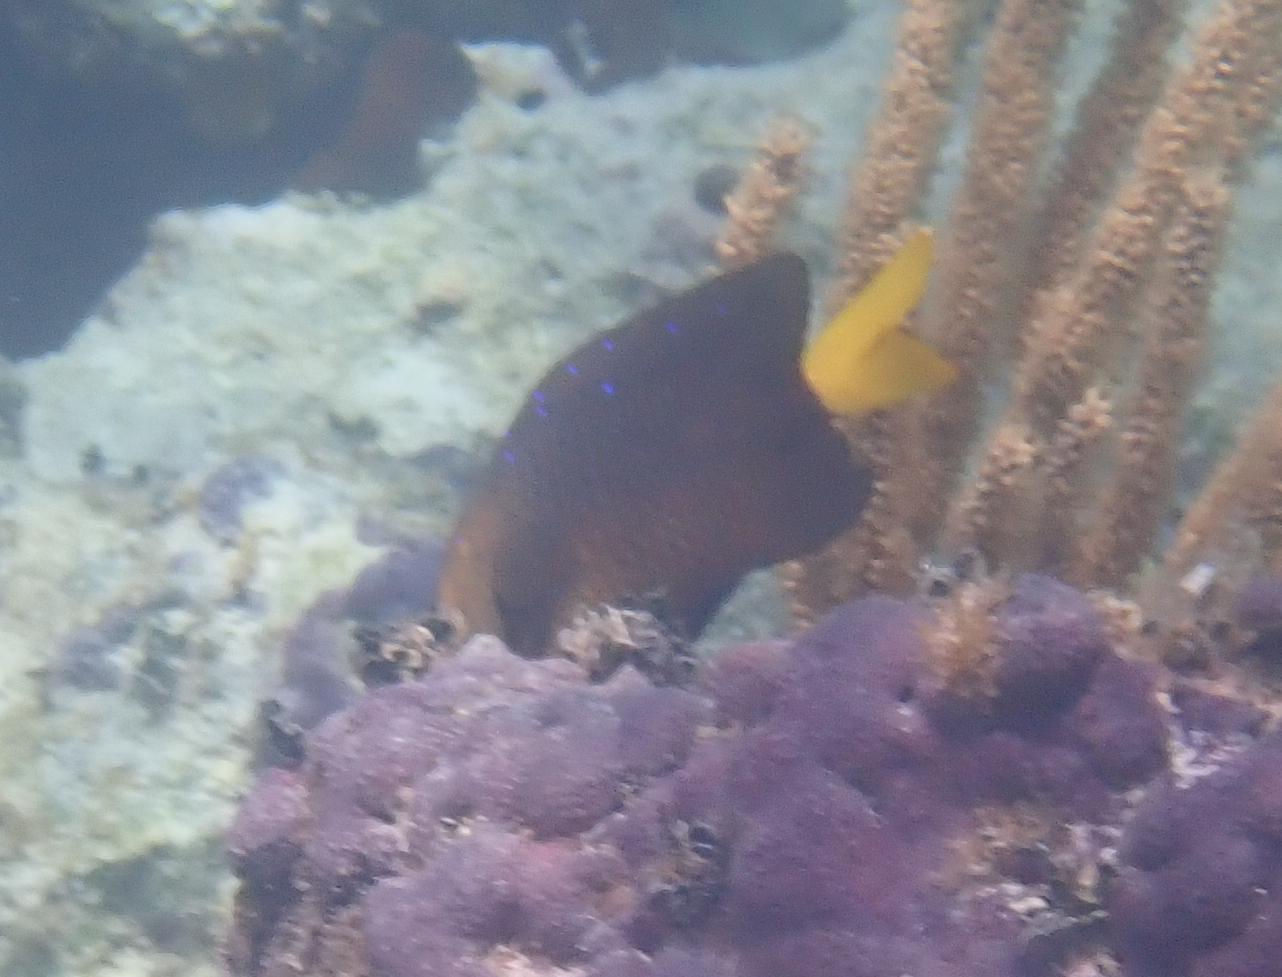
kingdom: Animalia
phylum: Chordata
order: Perciformes
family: Pomacentridae
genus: Microspathodon
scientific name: Microspathodon chrysurus
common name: Yellowtail damselfish
